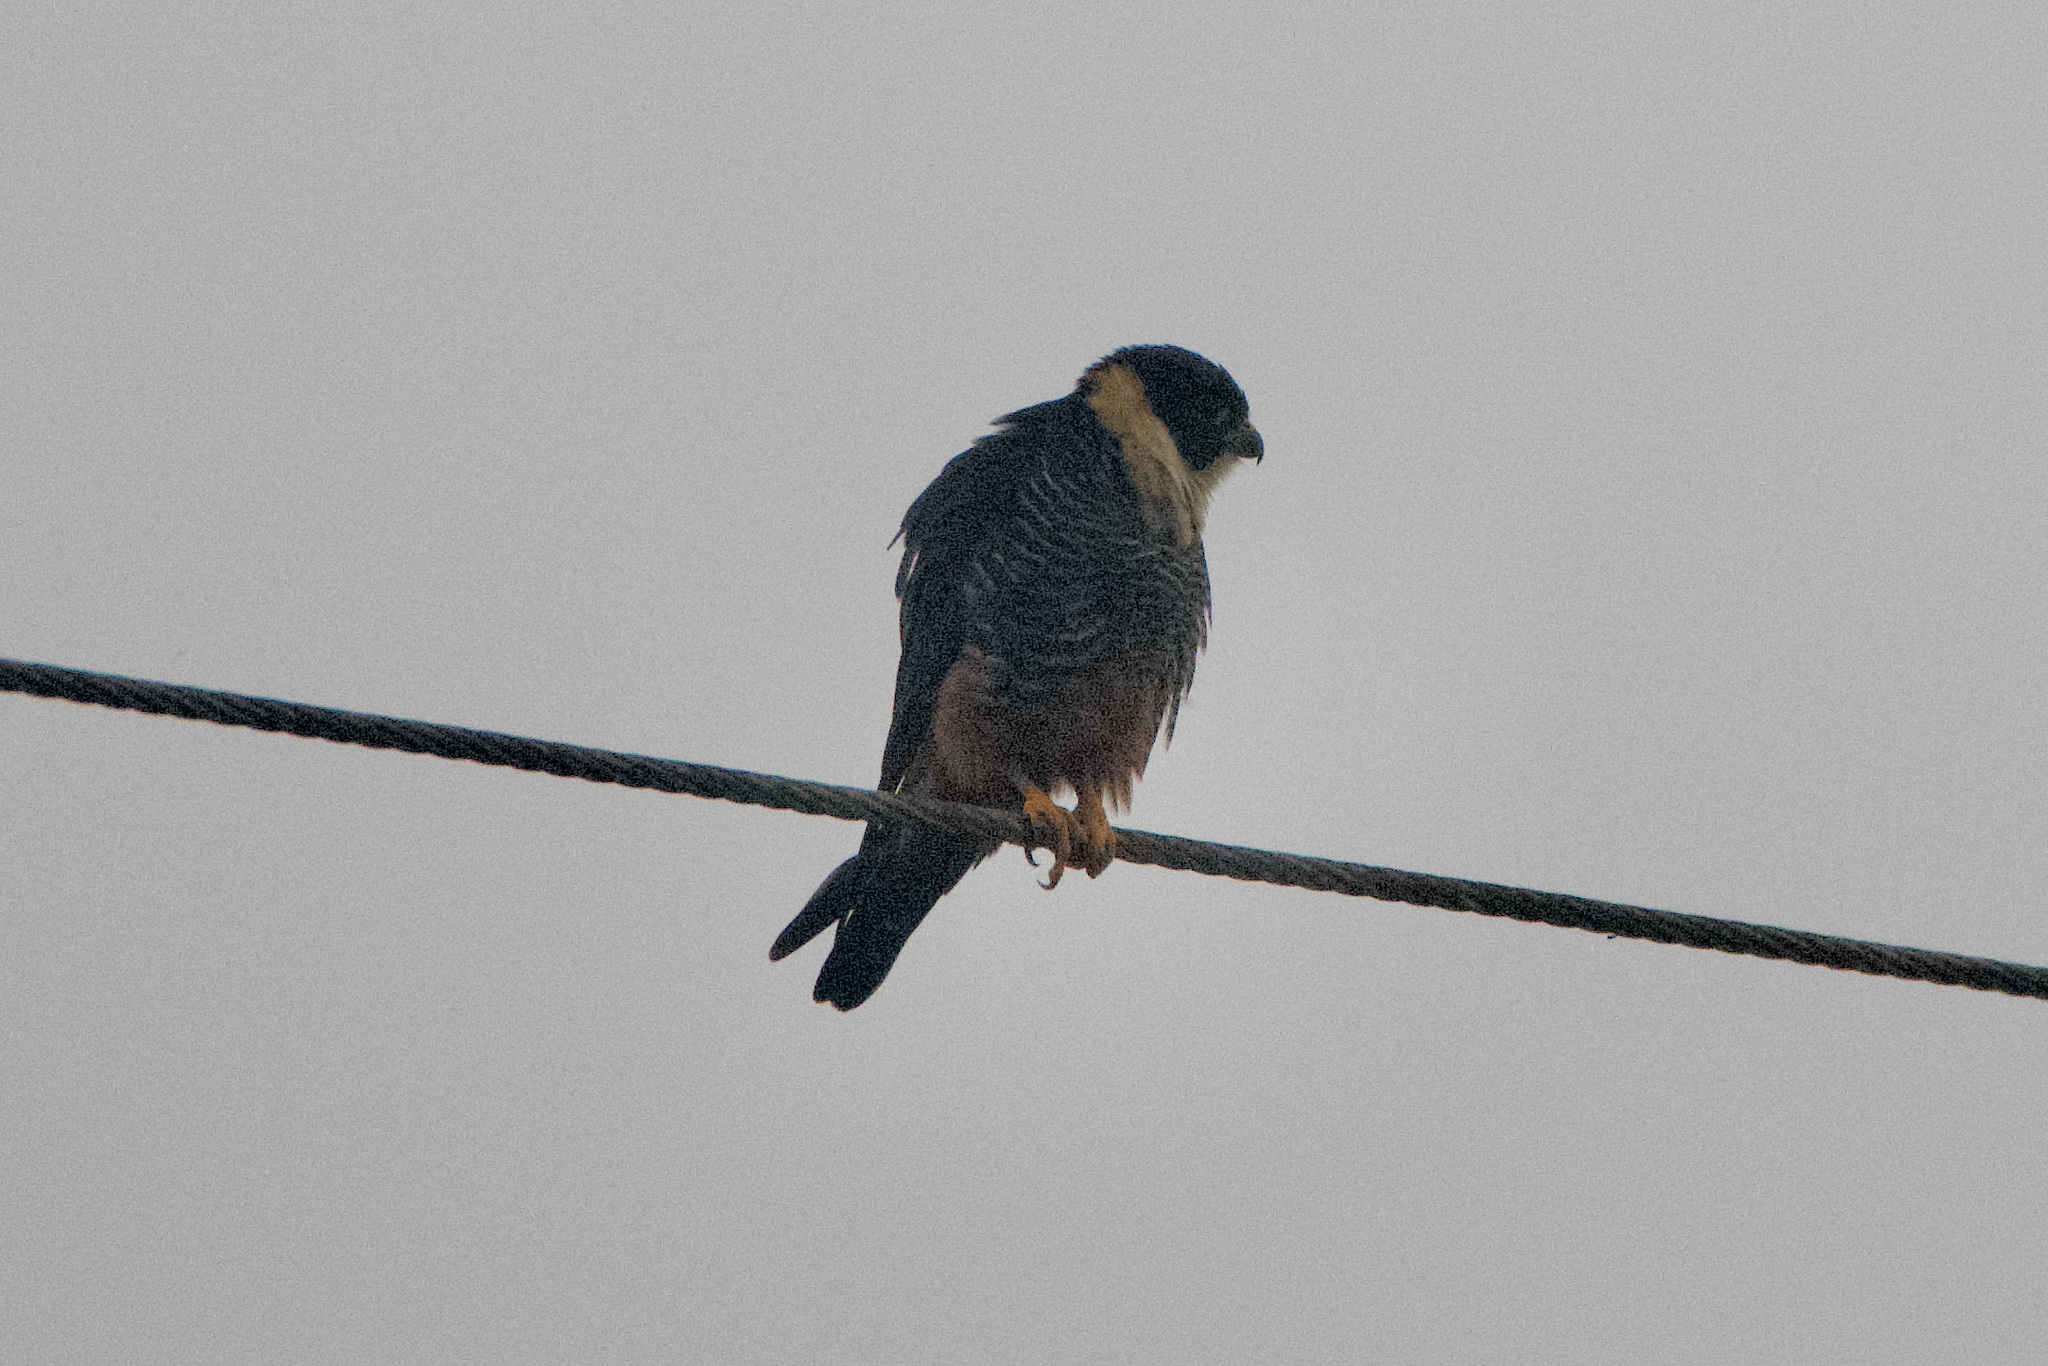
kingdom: Animalia
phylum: Chordata
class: Aves
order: Falconiformes
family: Falconidae
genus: Falco
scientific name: Falco rufigularis
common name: Bat falcon
